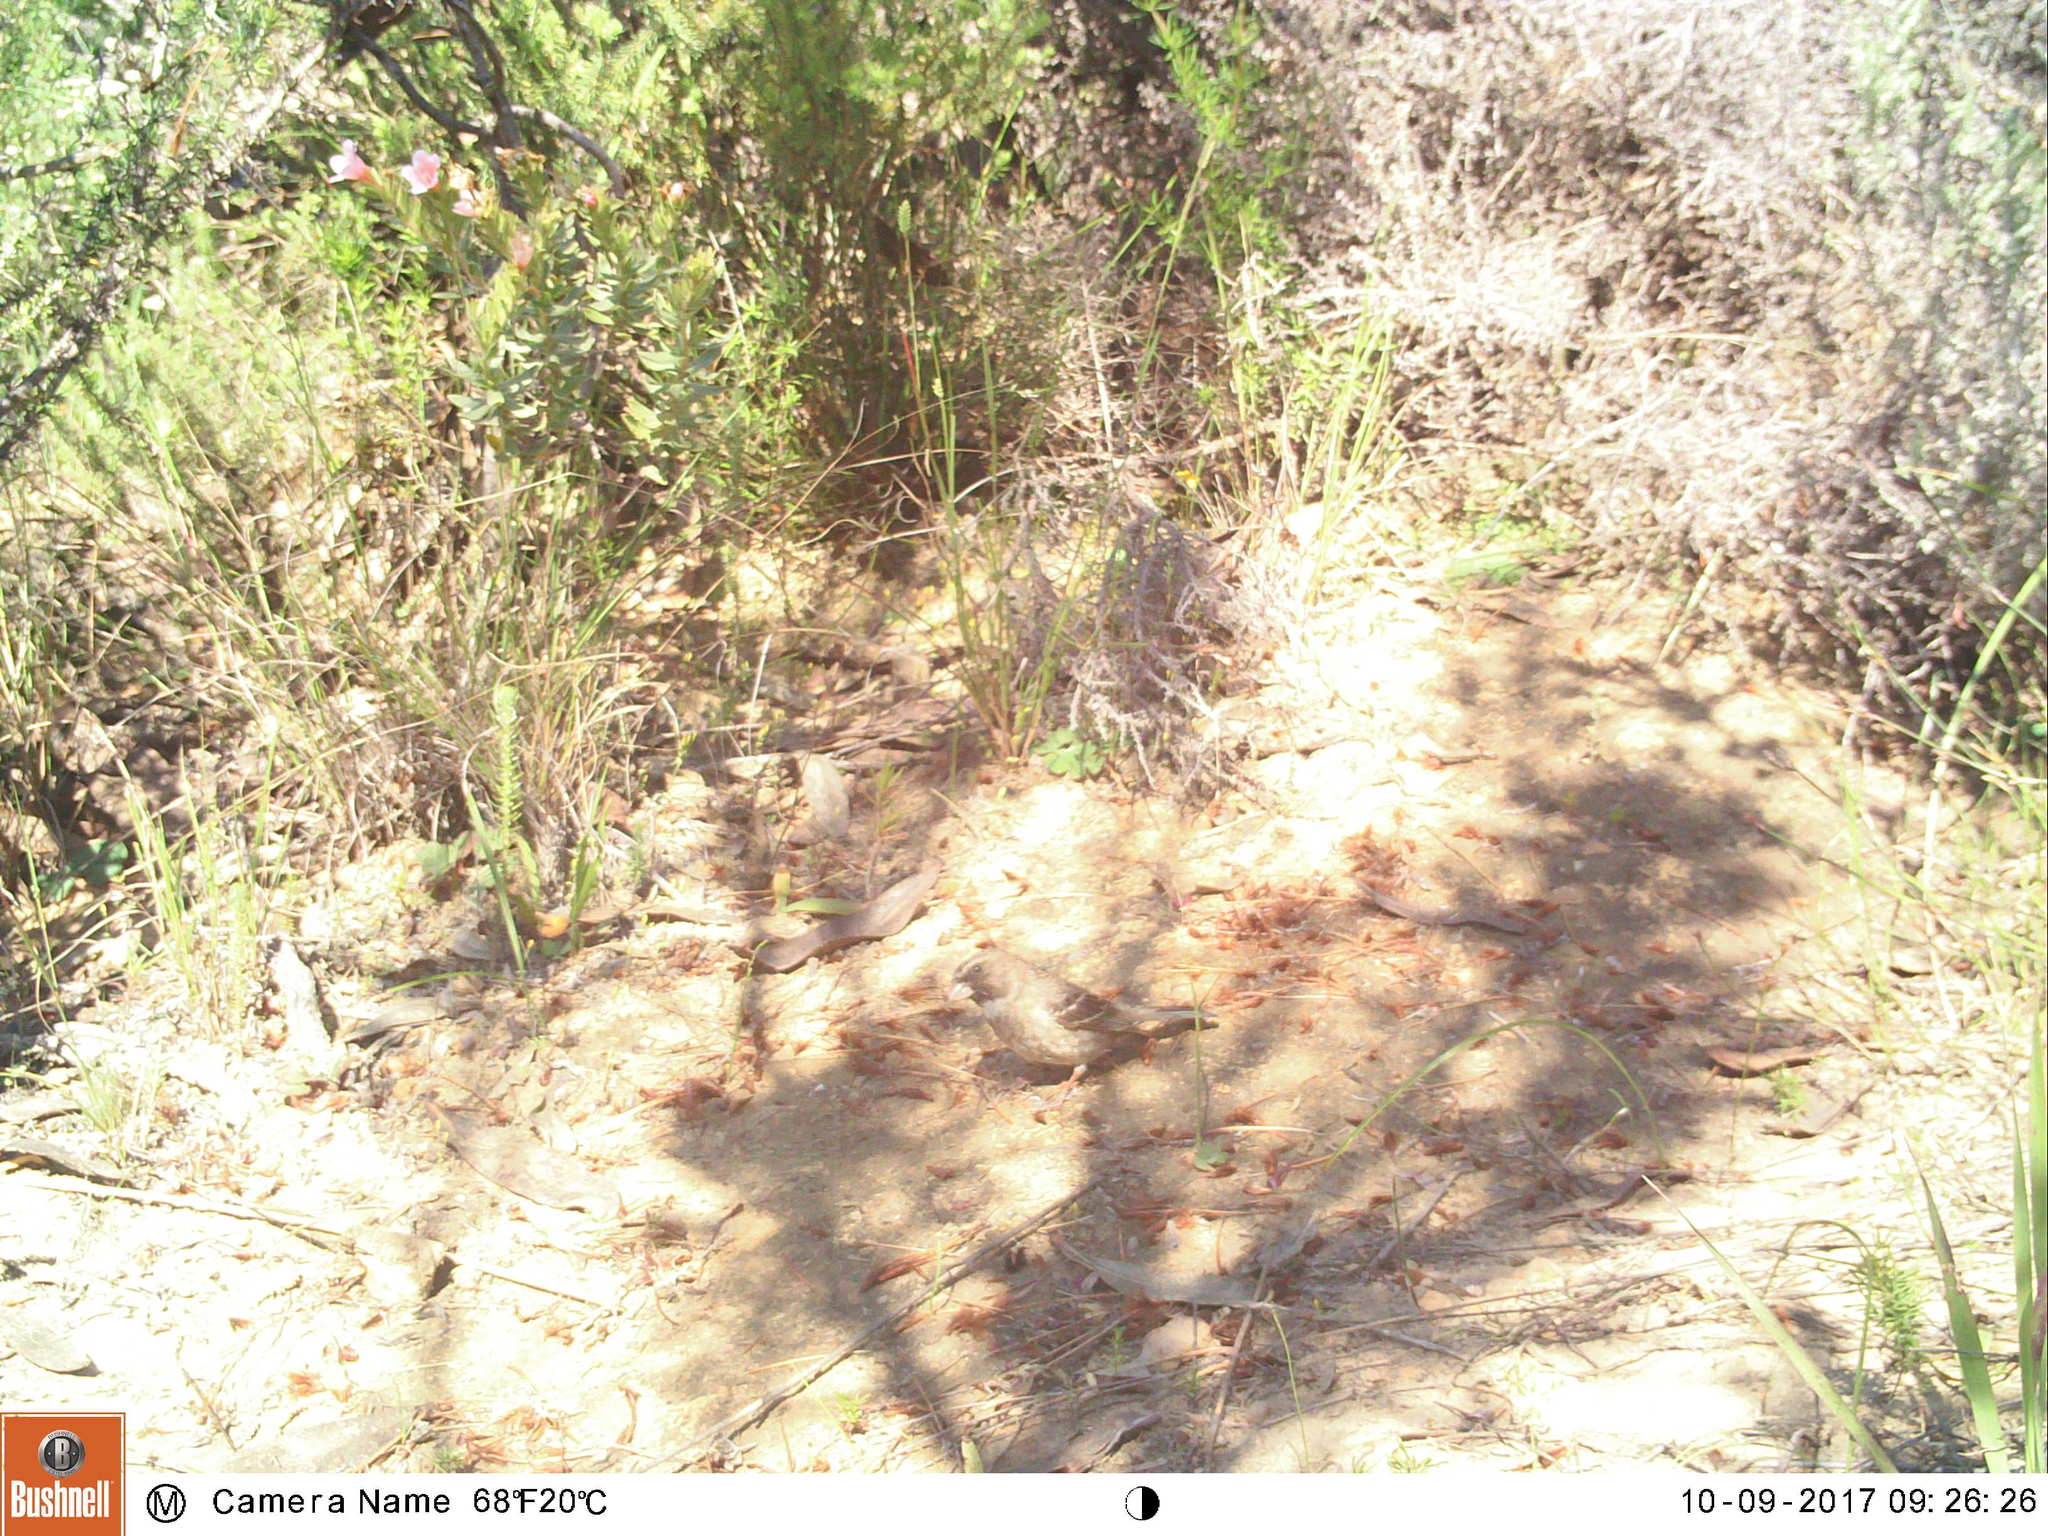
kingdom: Animalia
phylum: Chordata
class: Aves
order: Passeriformes
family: Fringillidae
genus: Crithagra
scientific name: Crithagra leucoptera
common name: Protea canary
